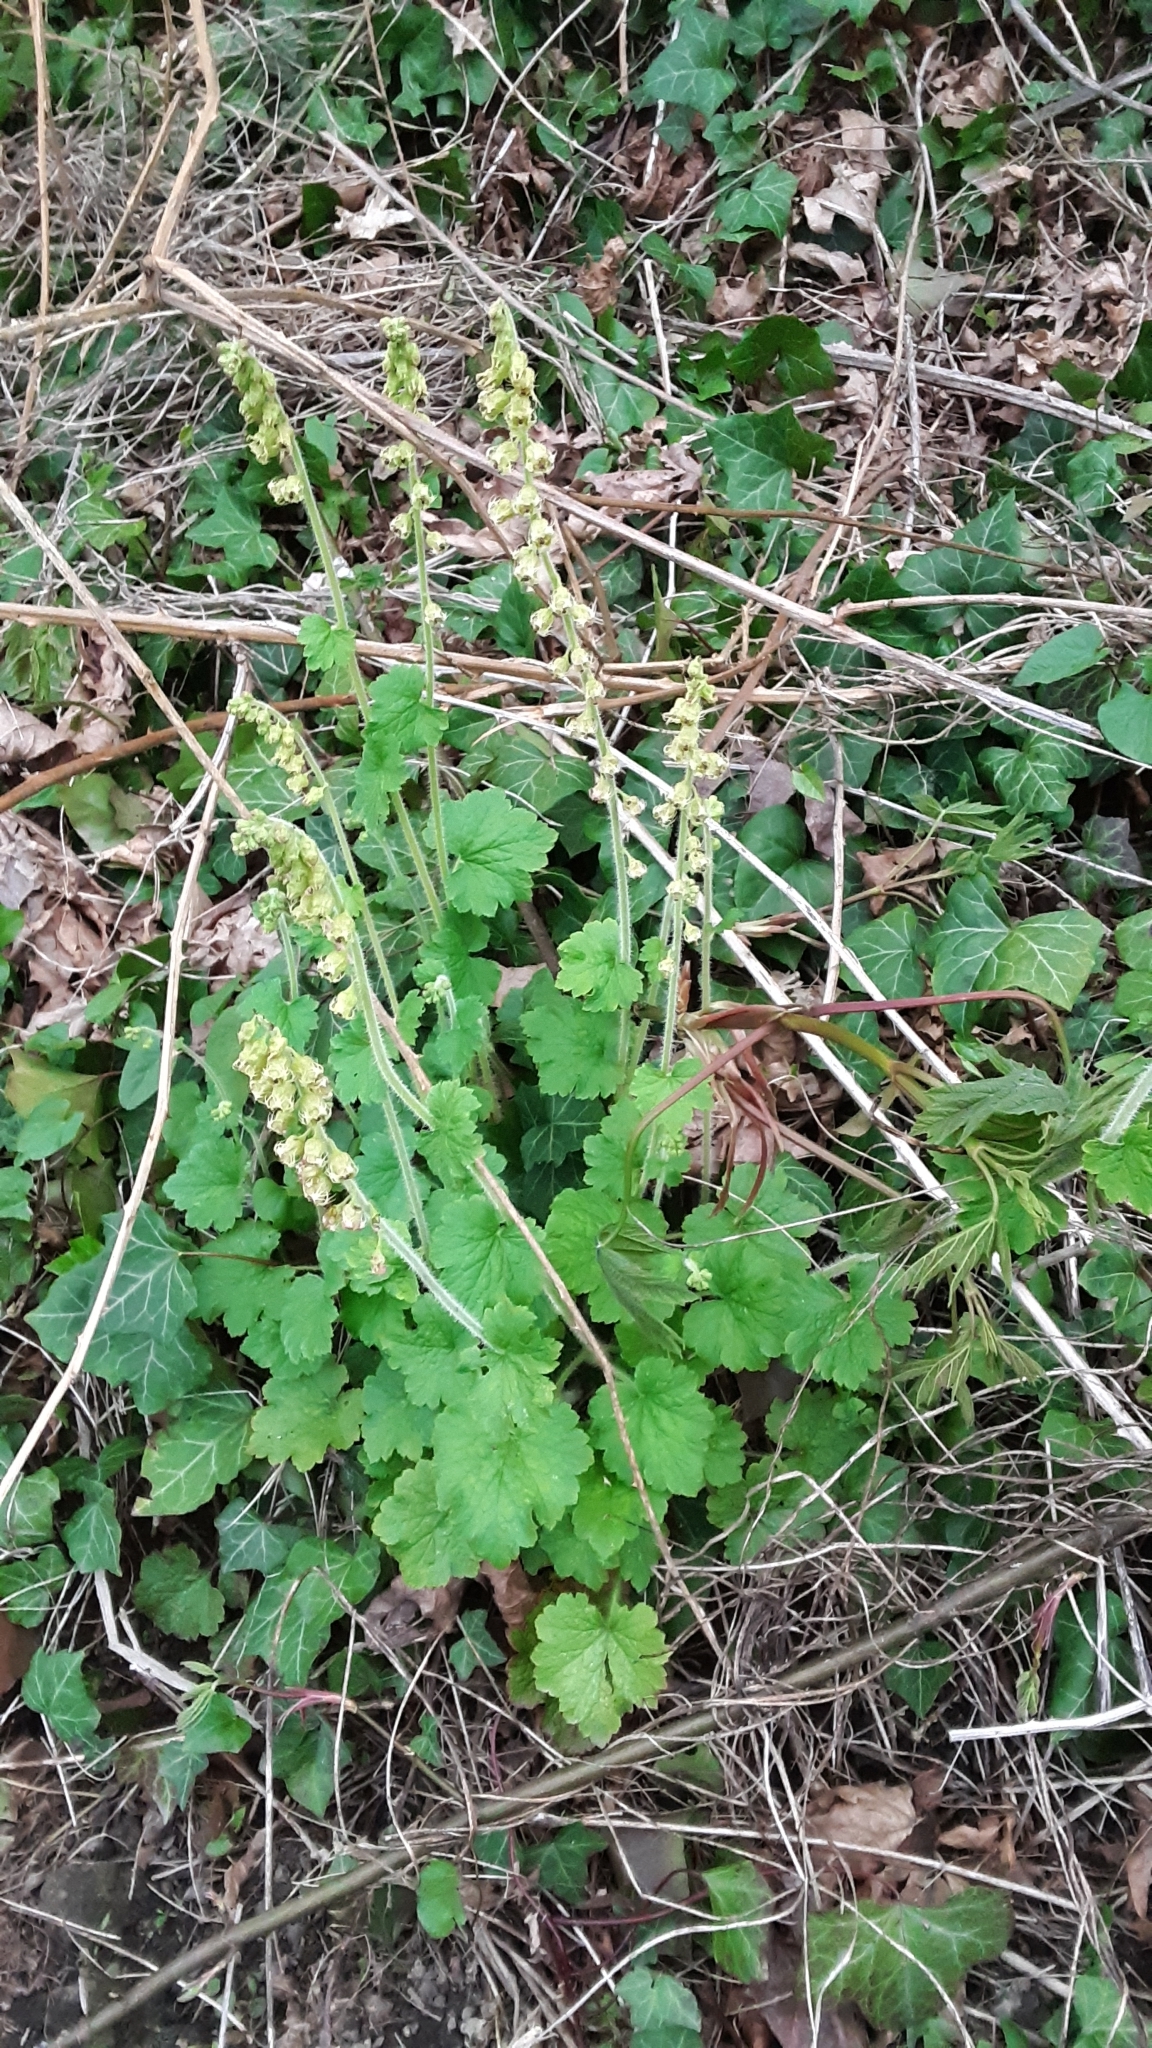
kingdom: Plantae
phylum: Tracheophyta
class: Magnoliopsida
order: Saxifragales
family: Saxifragaceae
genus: Tellima
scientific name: Tellima grandiflora
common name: Fringecups
